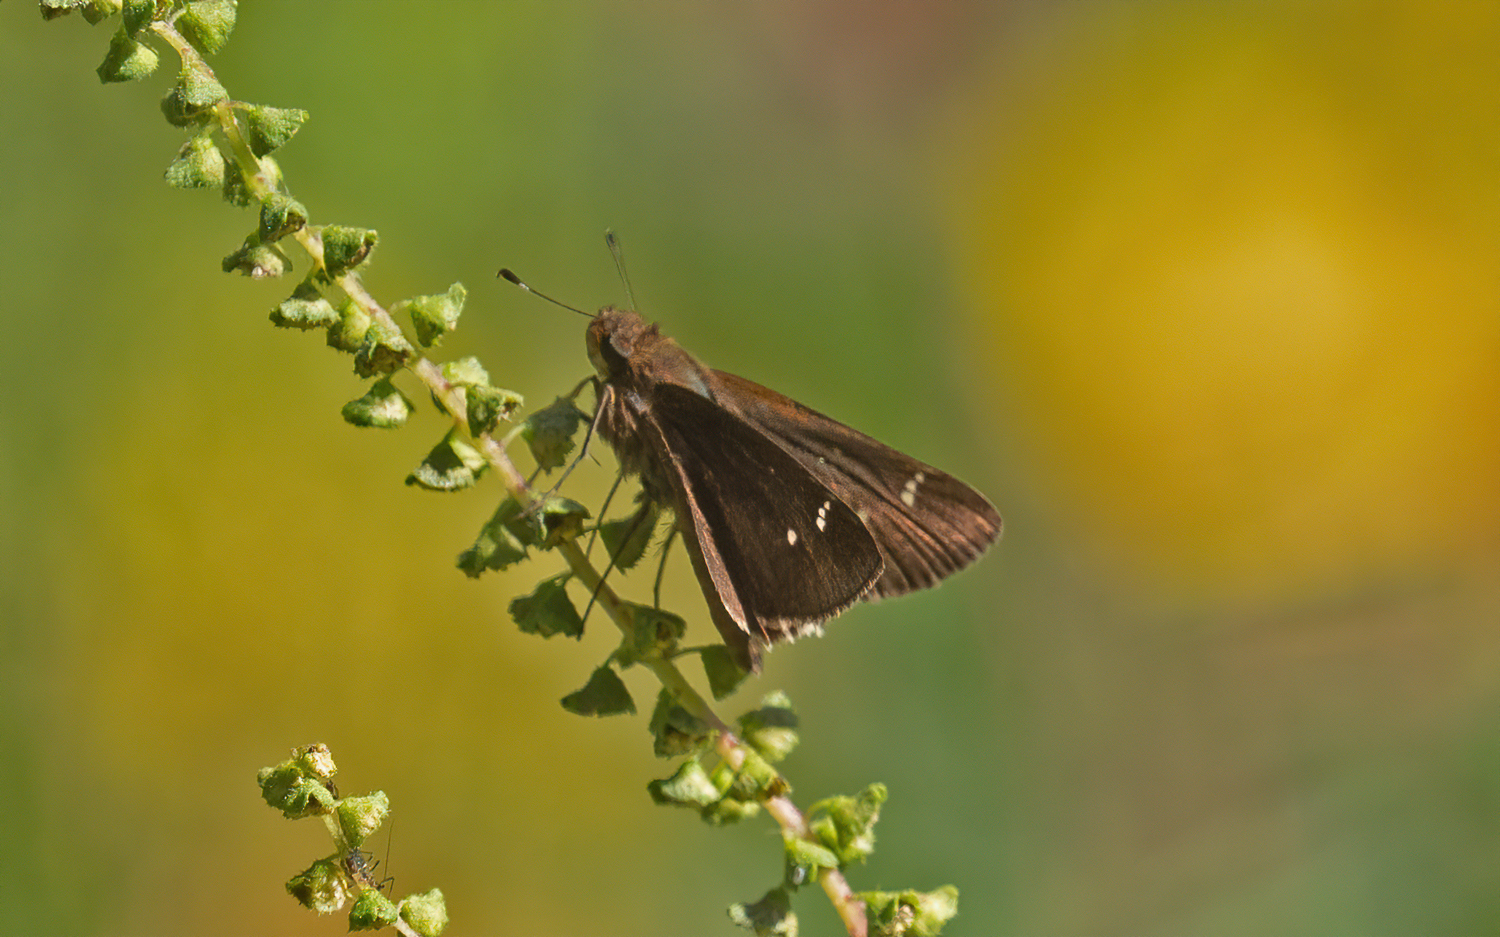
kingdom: Animalia
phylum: Arthropoda
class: Insecta
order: Lepidoptera
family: Hesperiidae
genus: Lerema
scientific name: Lerema accius
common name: Clouded skipper
